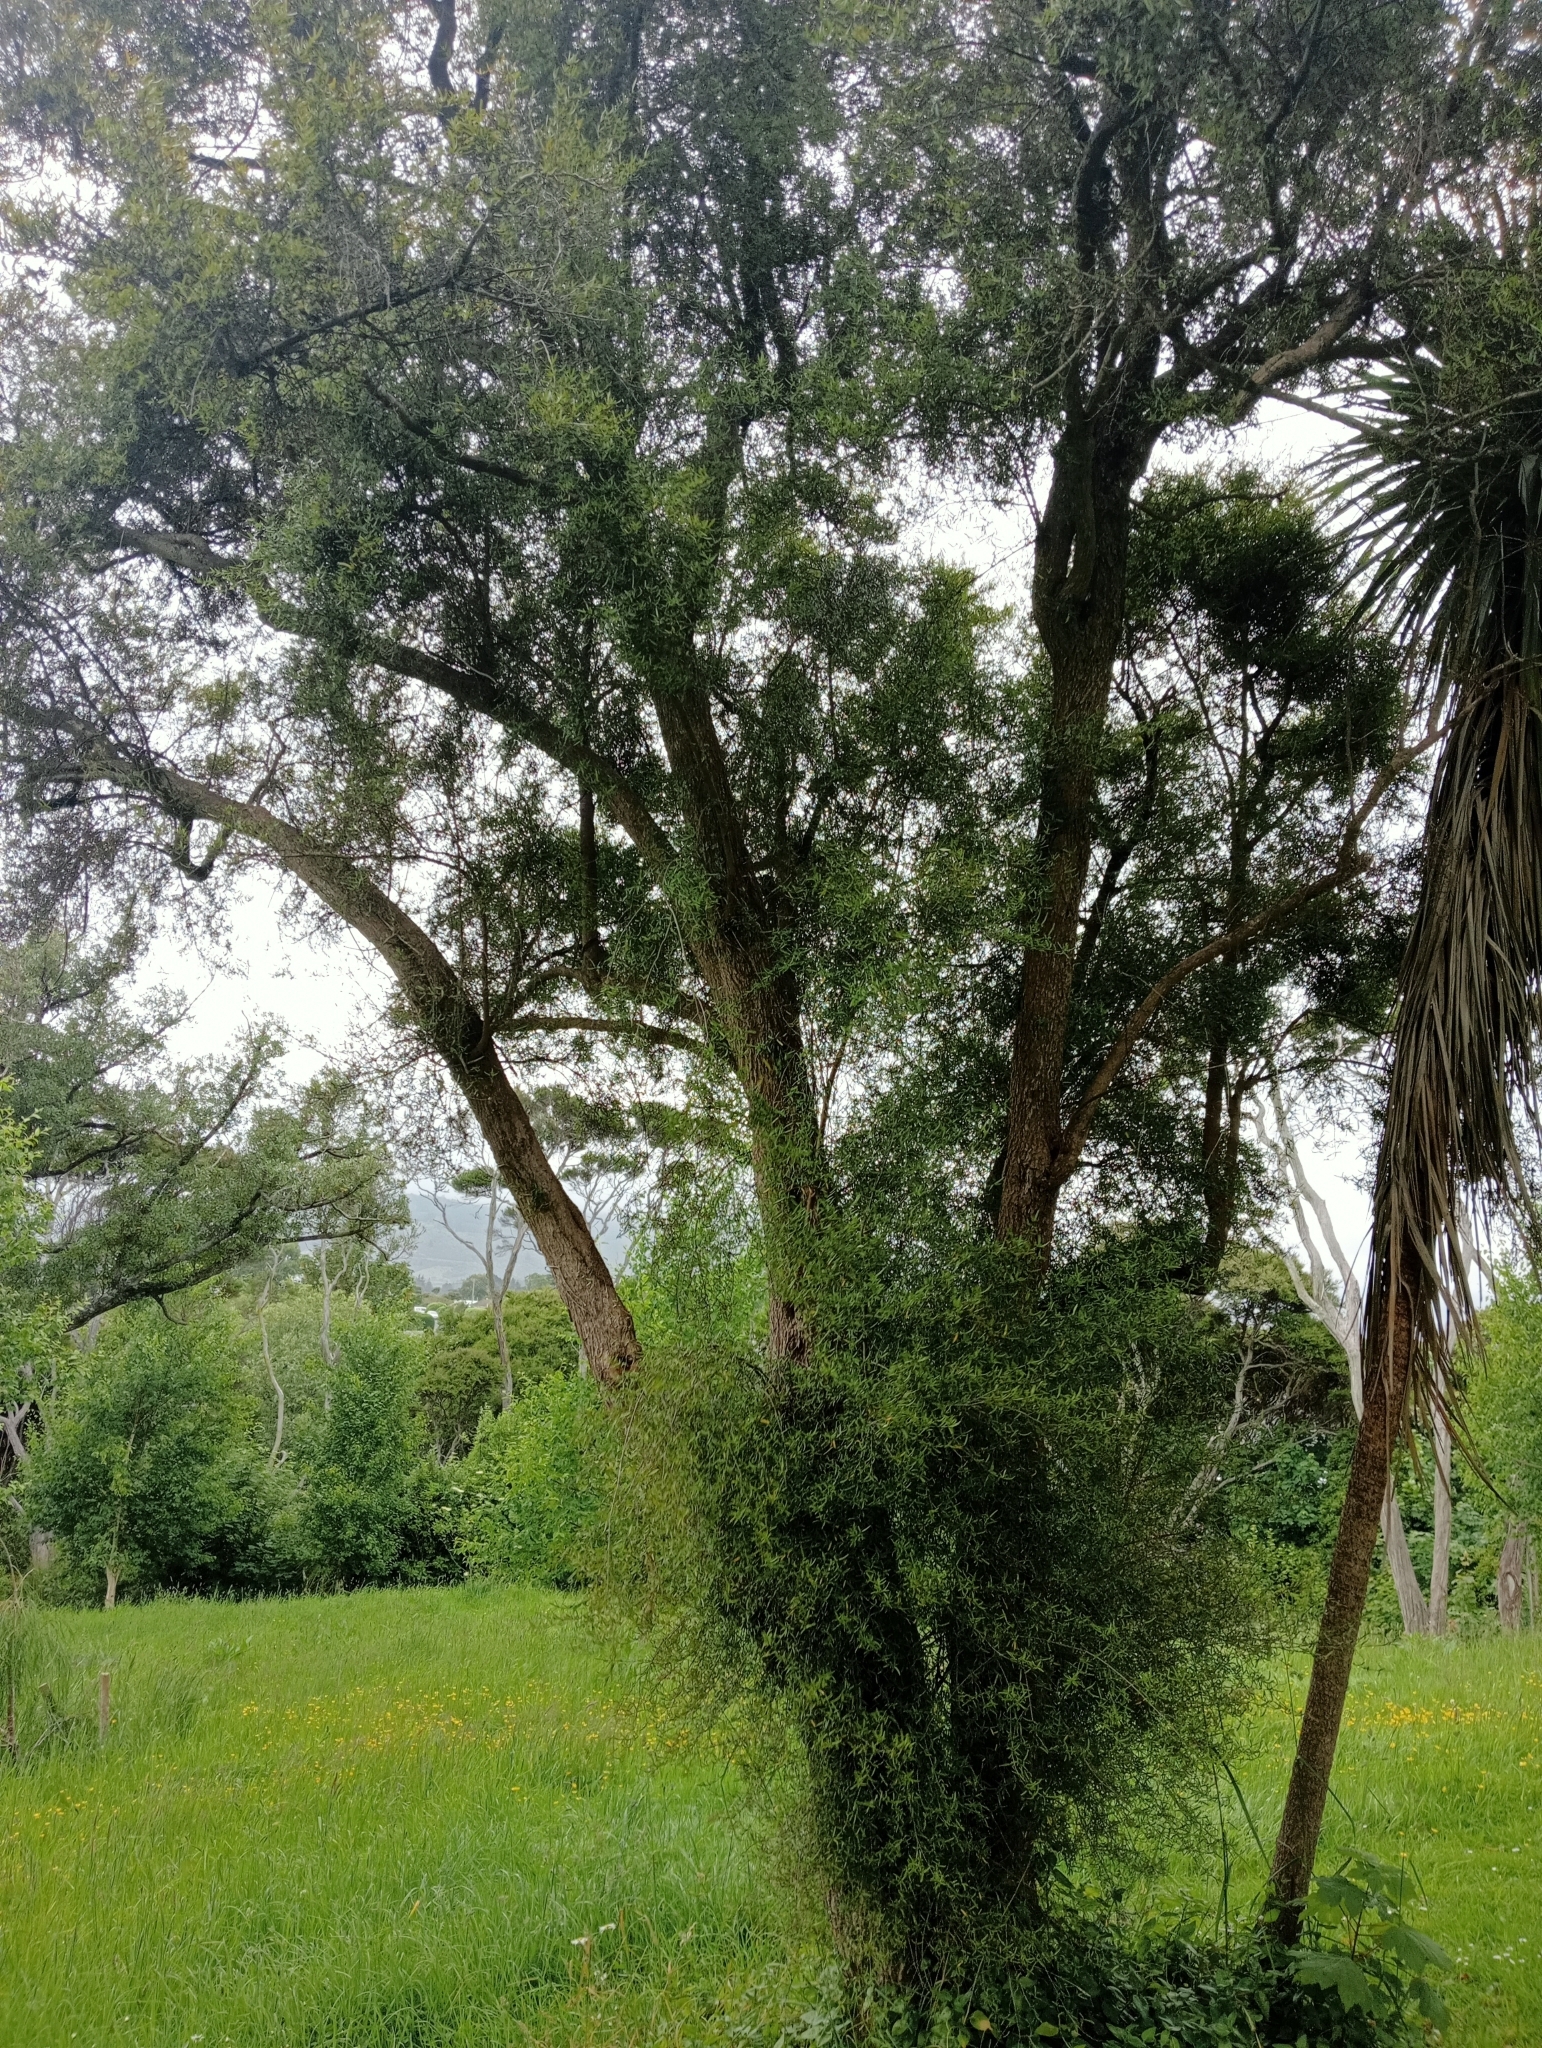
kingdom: Plantae
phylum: Tracheophyta
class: Magnoliopsida
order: Gentianales
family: Rubiaceae
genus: Coprosma
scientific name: Coprosma linariifolia
